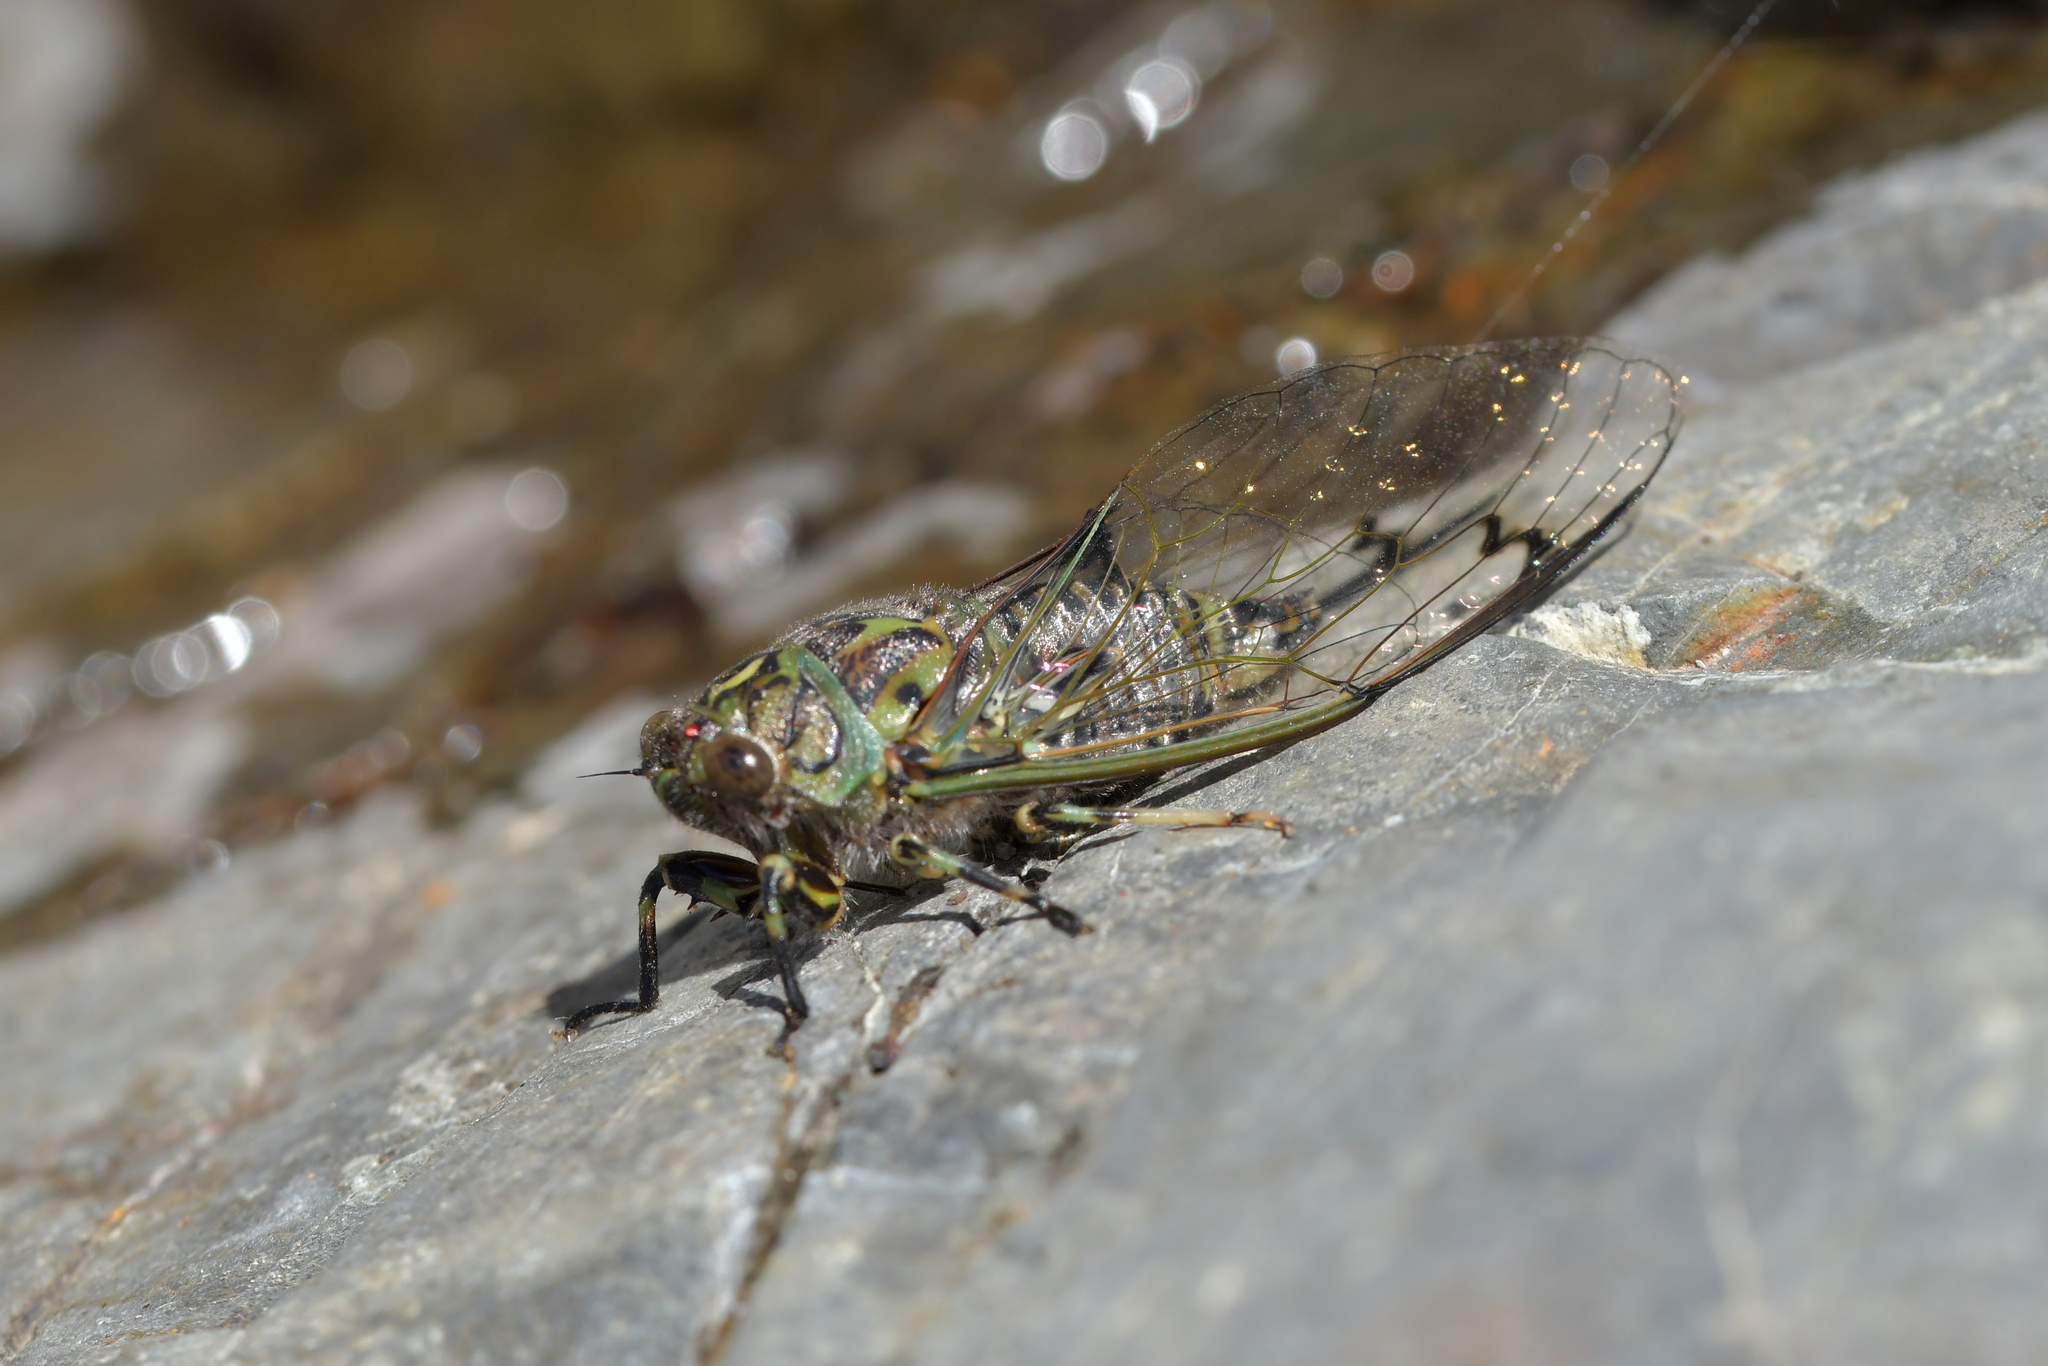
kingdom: Animalia
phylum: Arthropoda
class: Insecta
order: Hemiptera
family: Cicadidae
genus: Amphipsalta
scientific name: Amphipsalta zelandica
